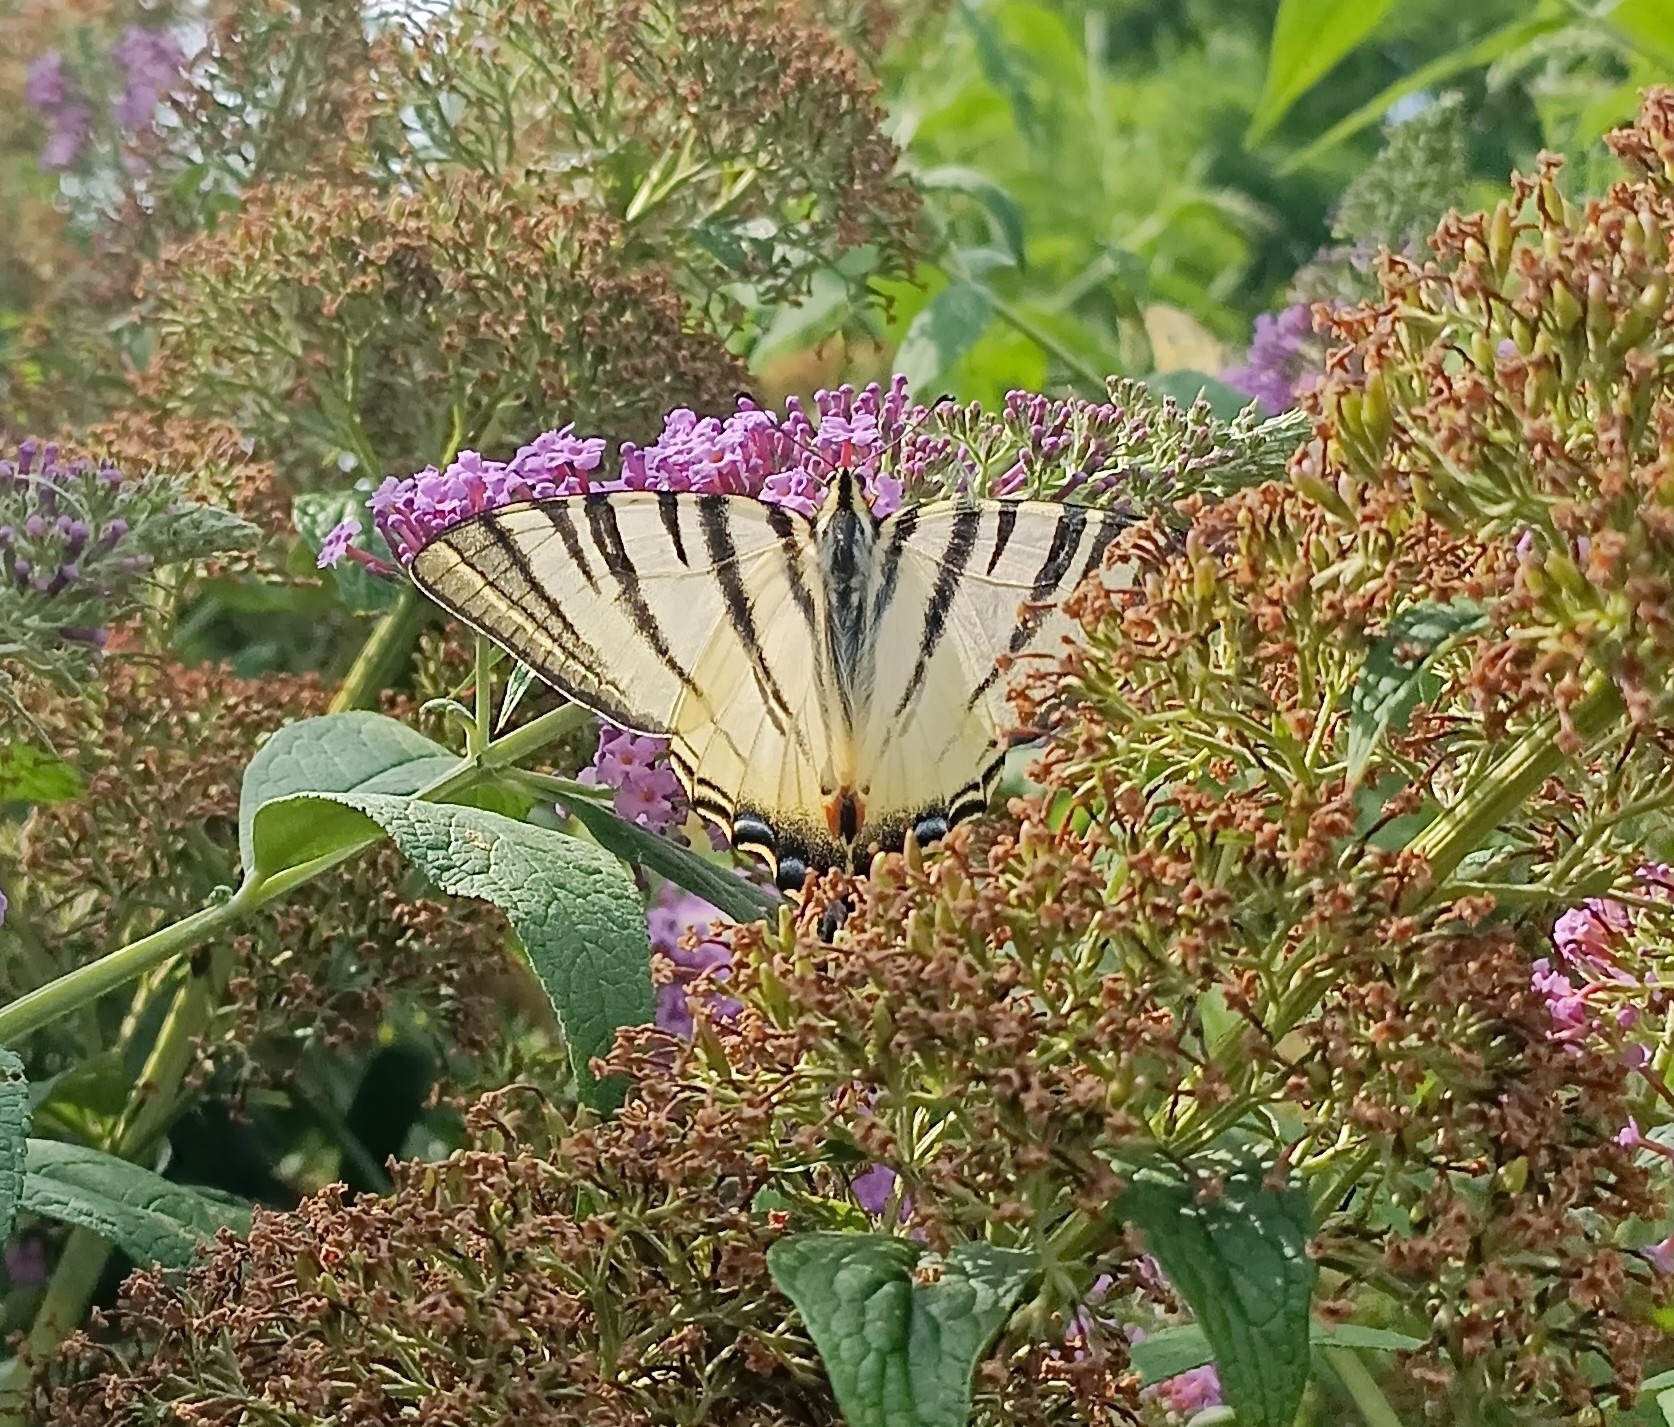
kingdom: Animalia
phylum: Arthropoda
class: Insecta
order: Lepidoptera
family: Papilionidae
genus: Iphiclides
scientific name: Iphiclides podalirius
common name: Scarce swallowtail
